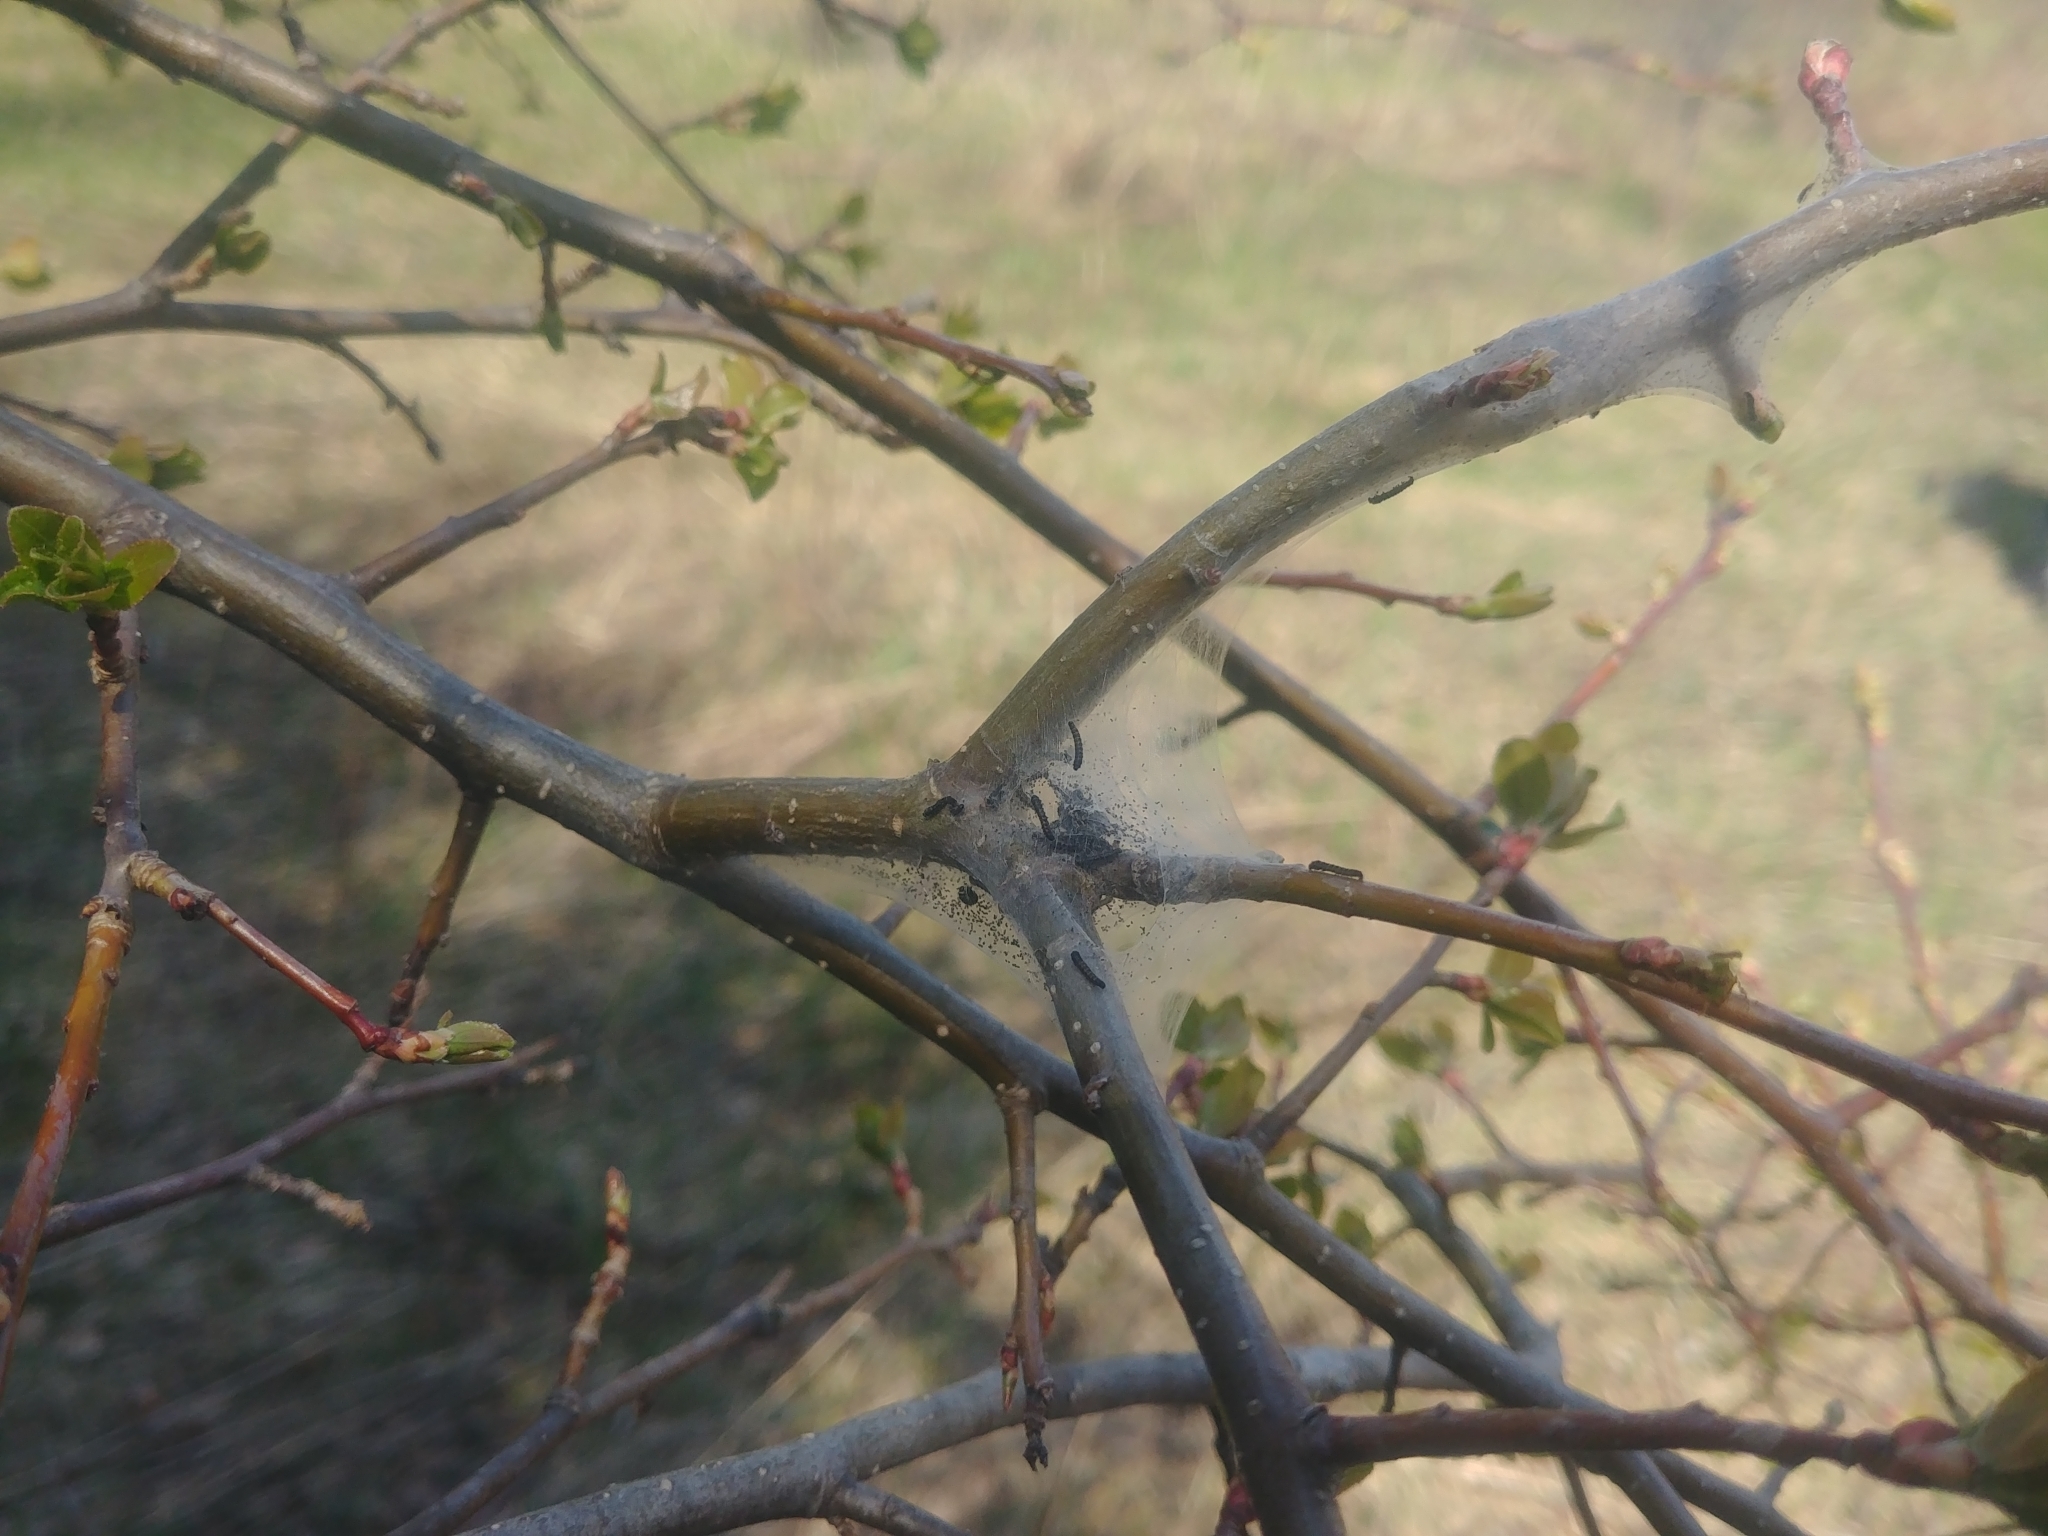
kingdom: Animalia
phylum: Arthropoda
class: Insecta
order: Lepidoptera
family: Lasiocampidae
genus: Malacosoma
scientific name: Malacosoma americana
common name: Eastern tent caterpillar moth
